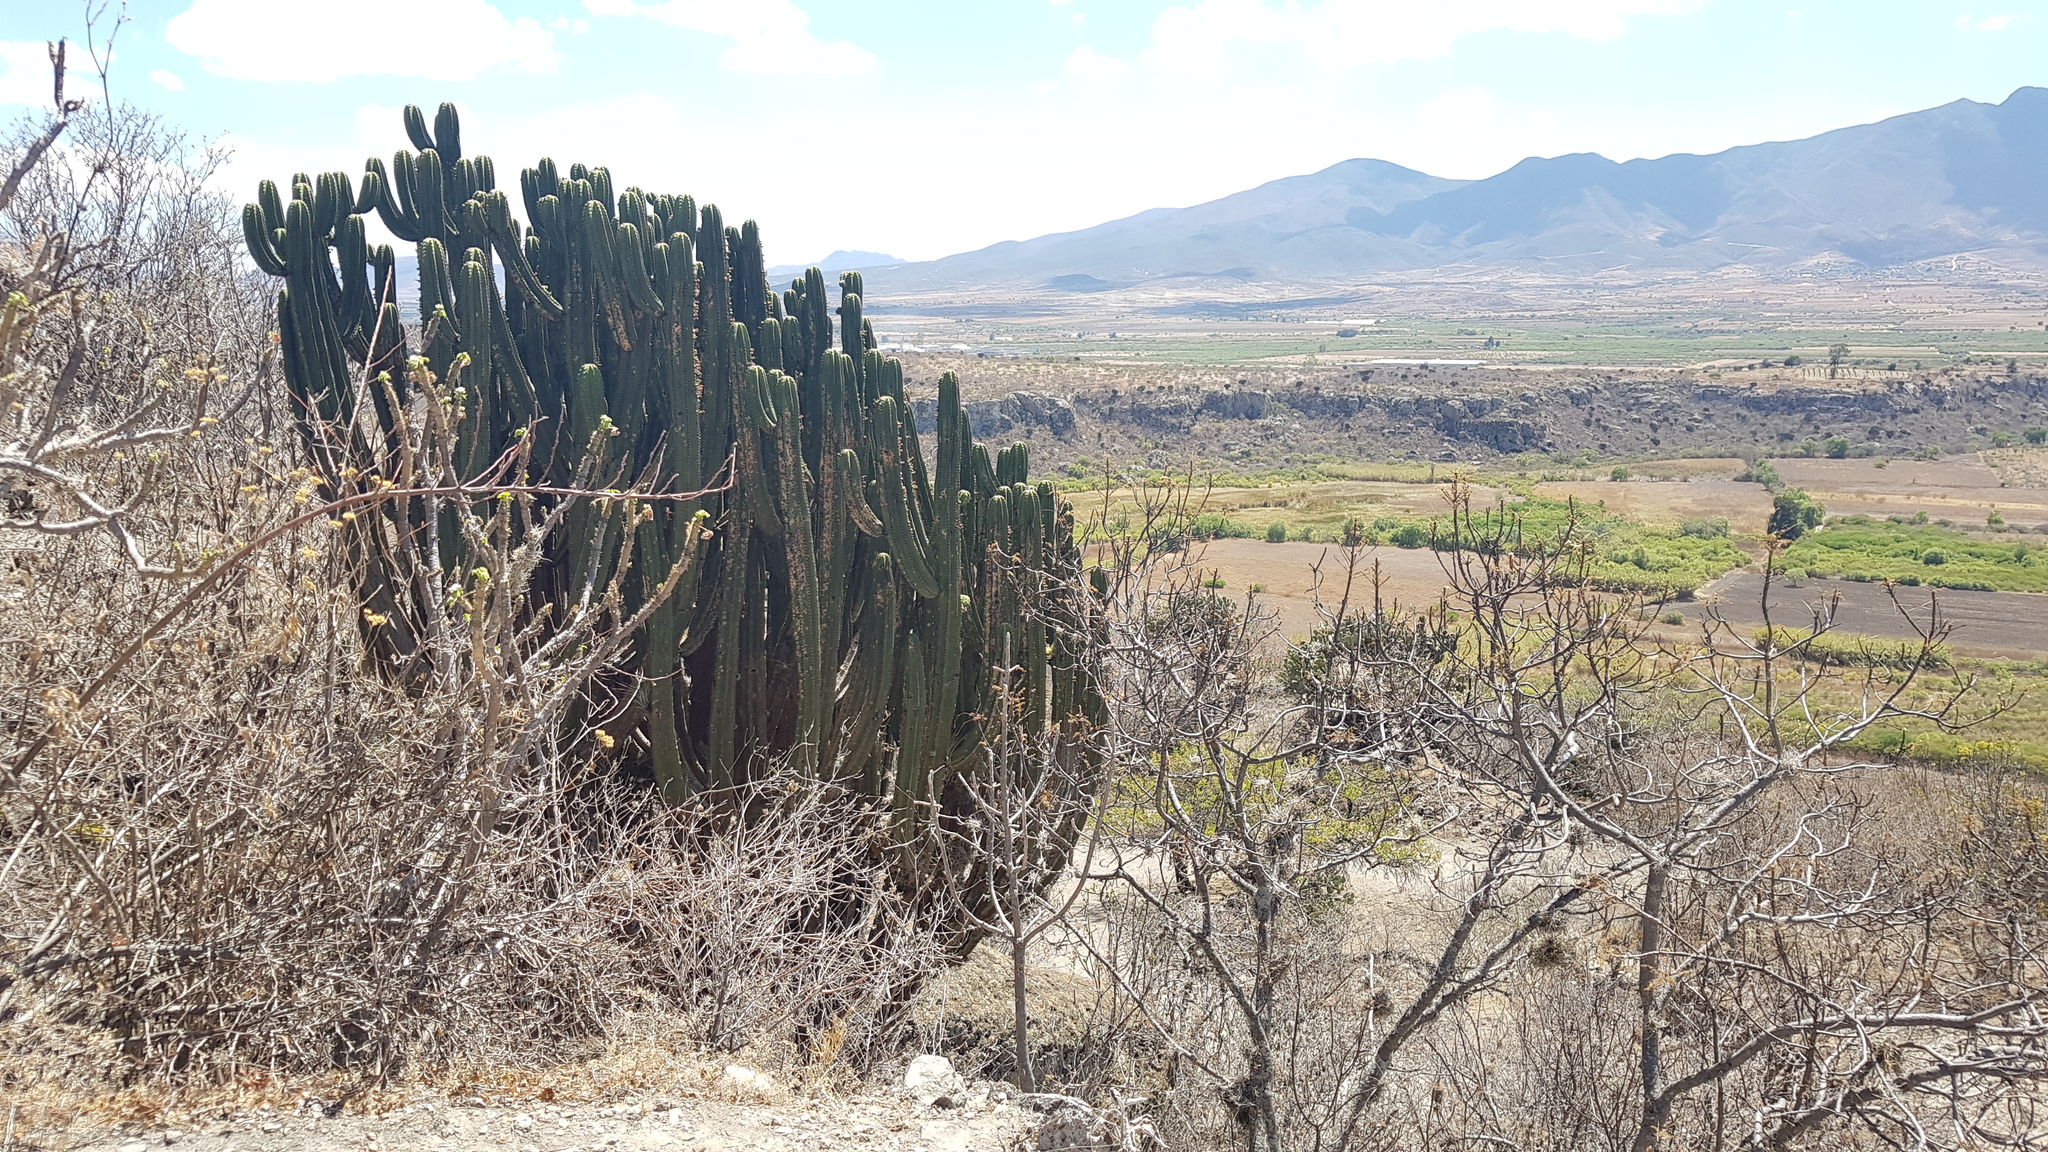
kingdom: Plantae
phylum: Tracheophyta
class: Magnoliopsida
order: Caryophyllales
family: Cactaceae
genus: Myrtillocactus
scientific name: Myrtillocactus schenckii
